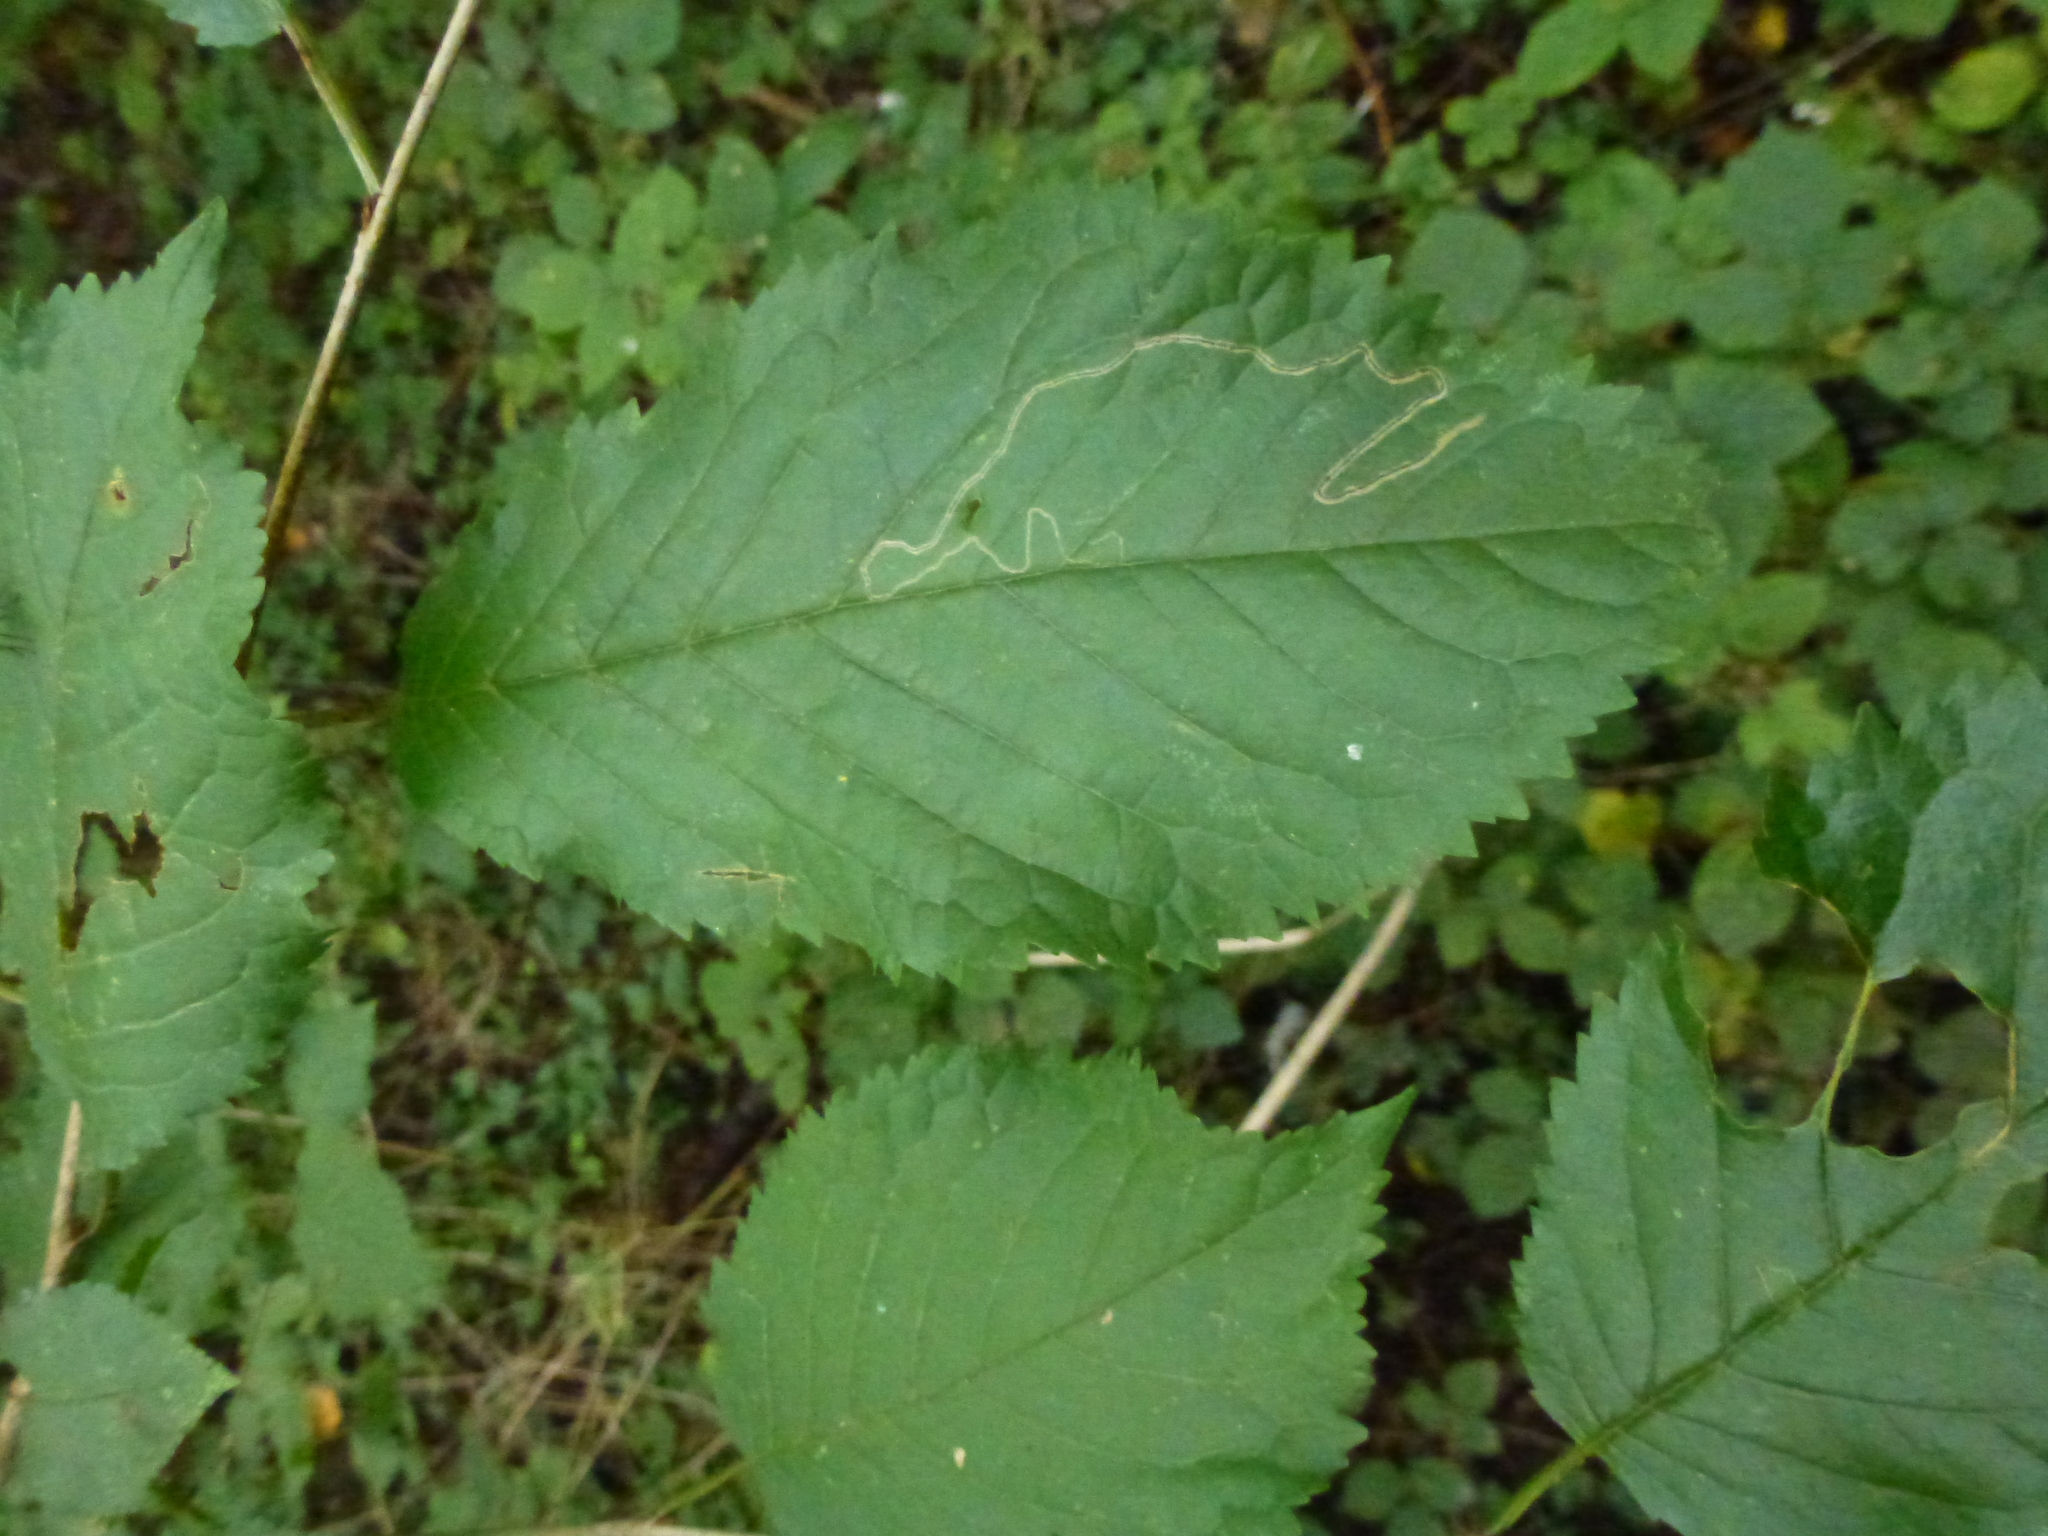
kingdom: Animalia
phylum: Arthropoda
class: Insecta
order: Lepidoptera
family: Lyonetiidae
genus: Lyonetia
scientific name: Lyonetia clerkella
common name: Apple leaf miner
